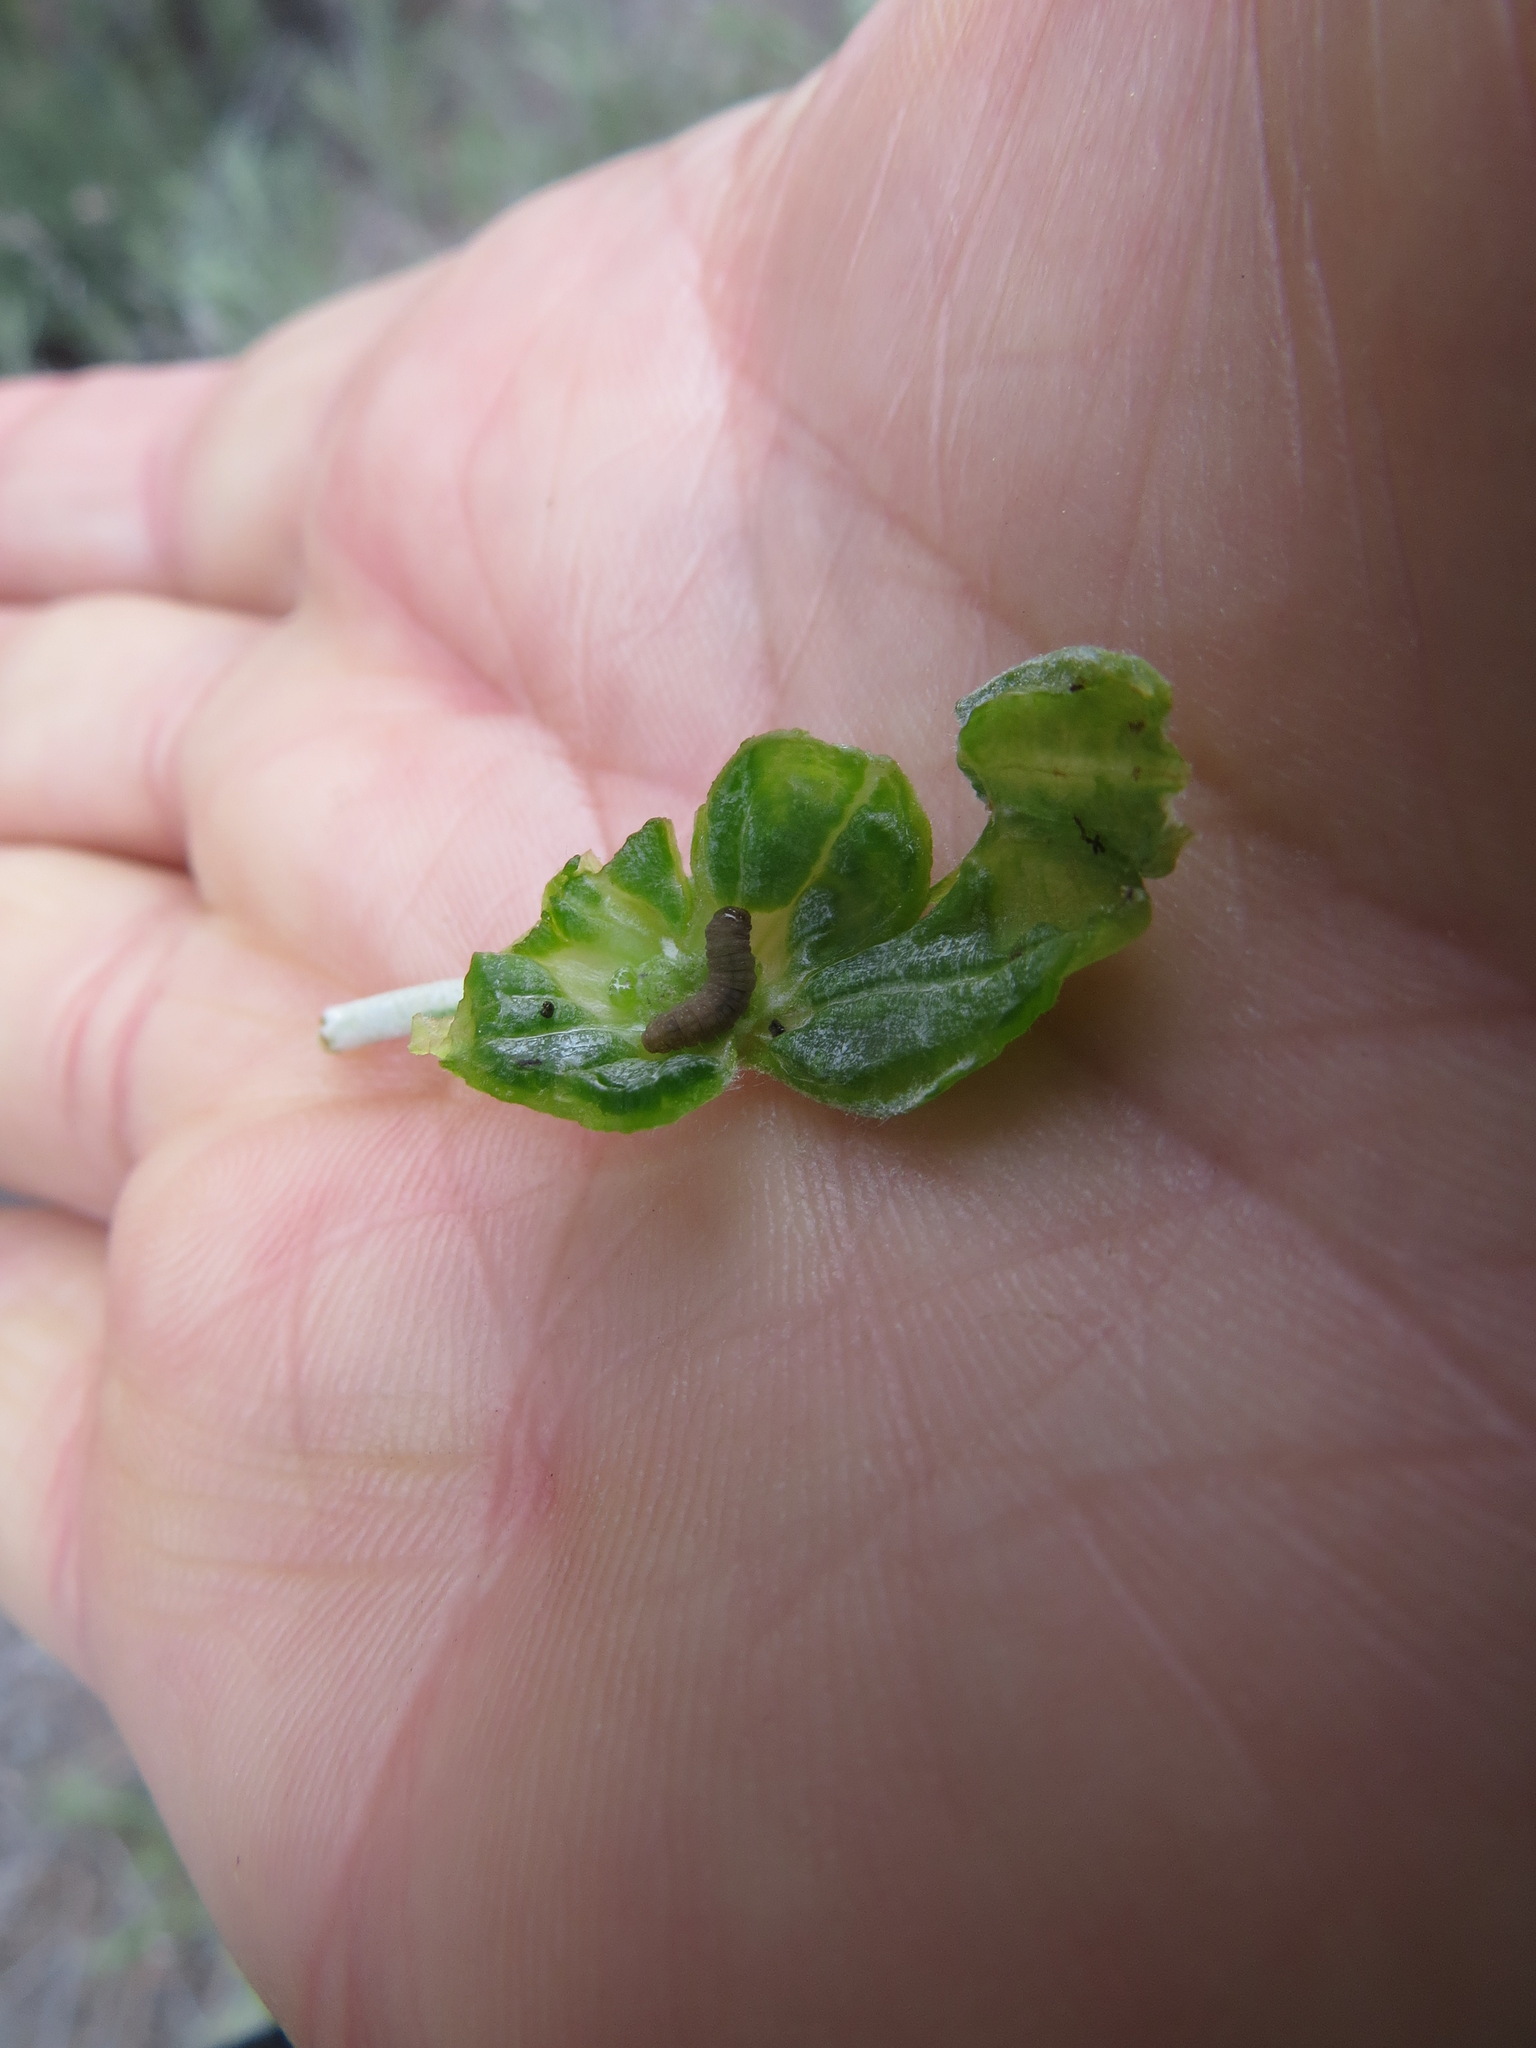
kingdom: Animalia
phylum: Arthropoda
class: Insecta
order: Diptera
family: Tephritidae
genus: Aciurina
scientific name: Aciurina bigeloviae
